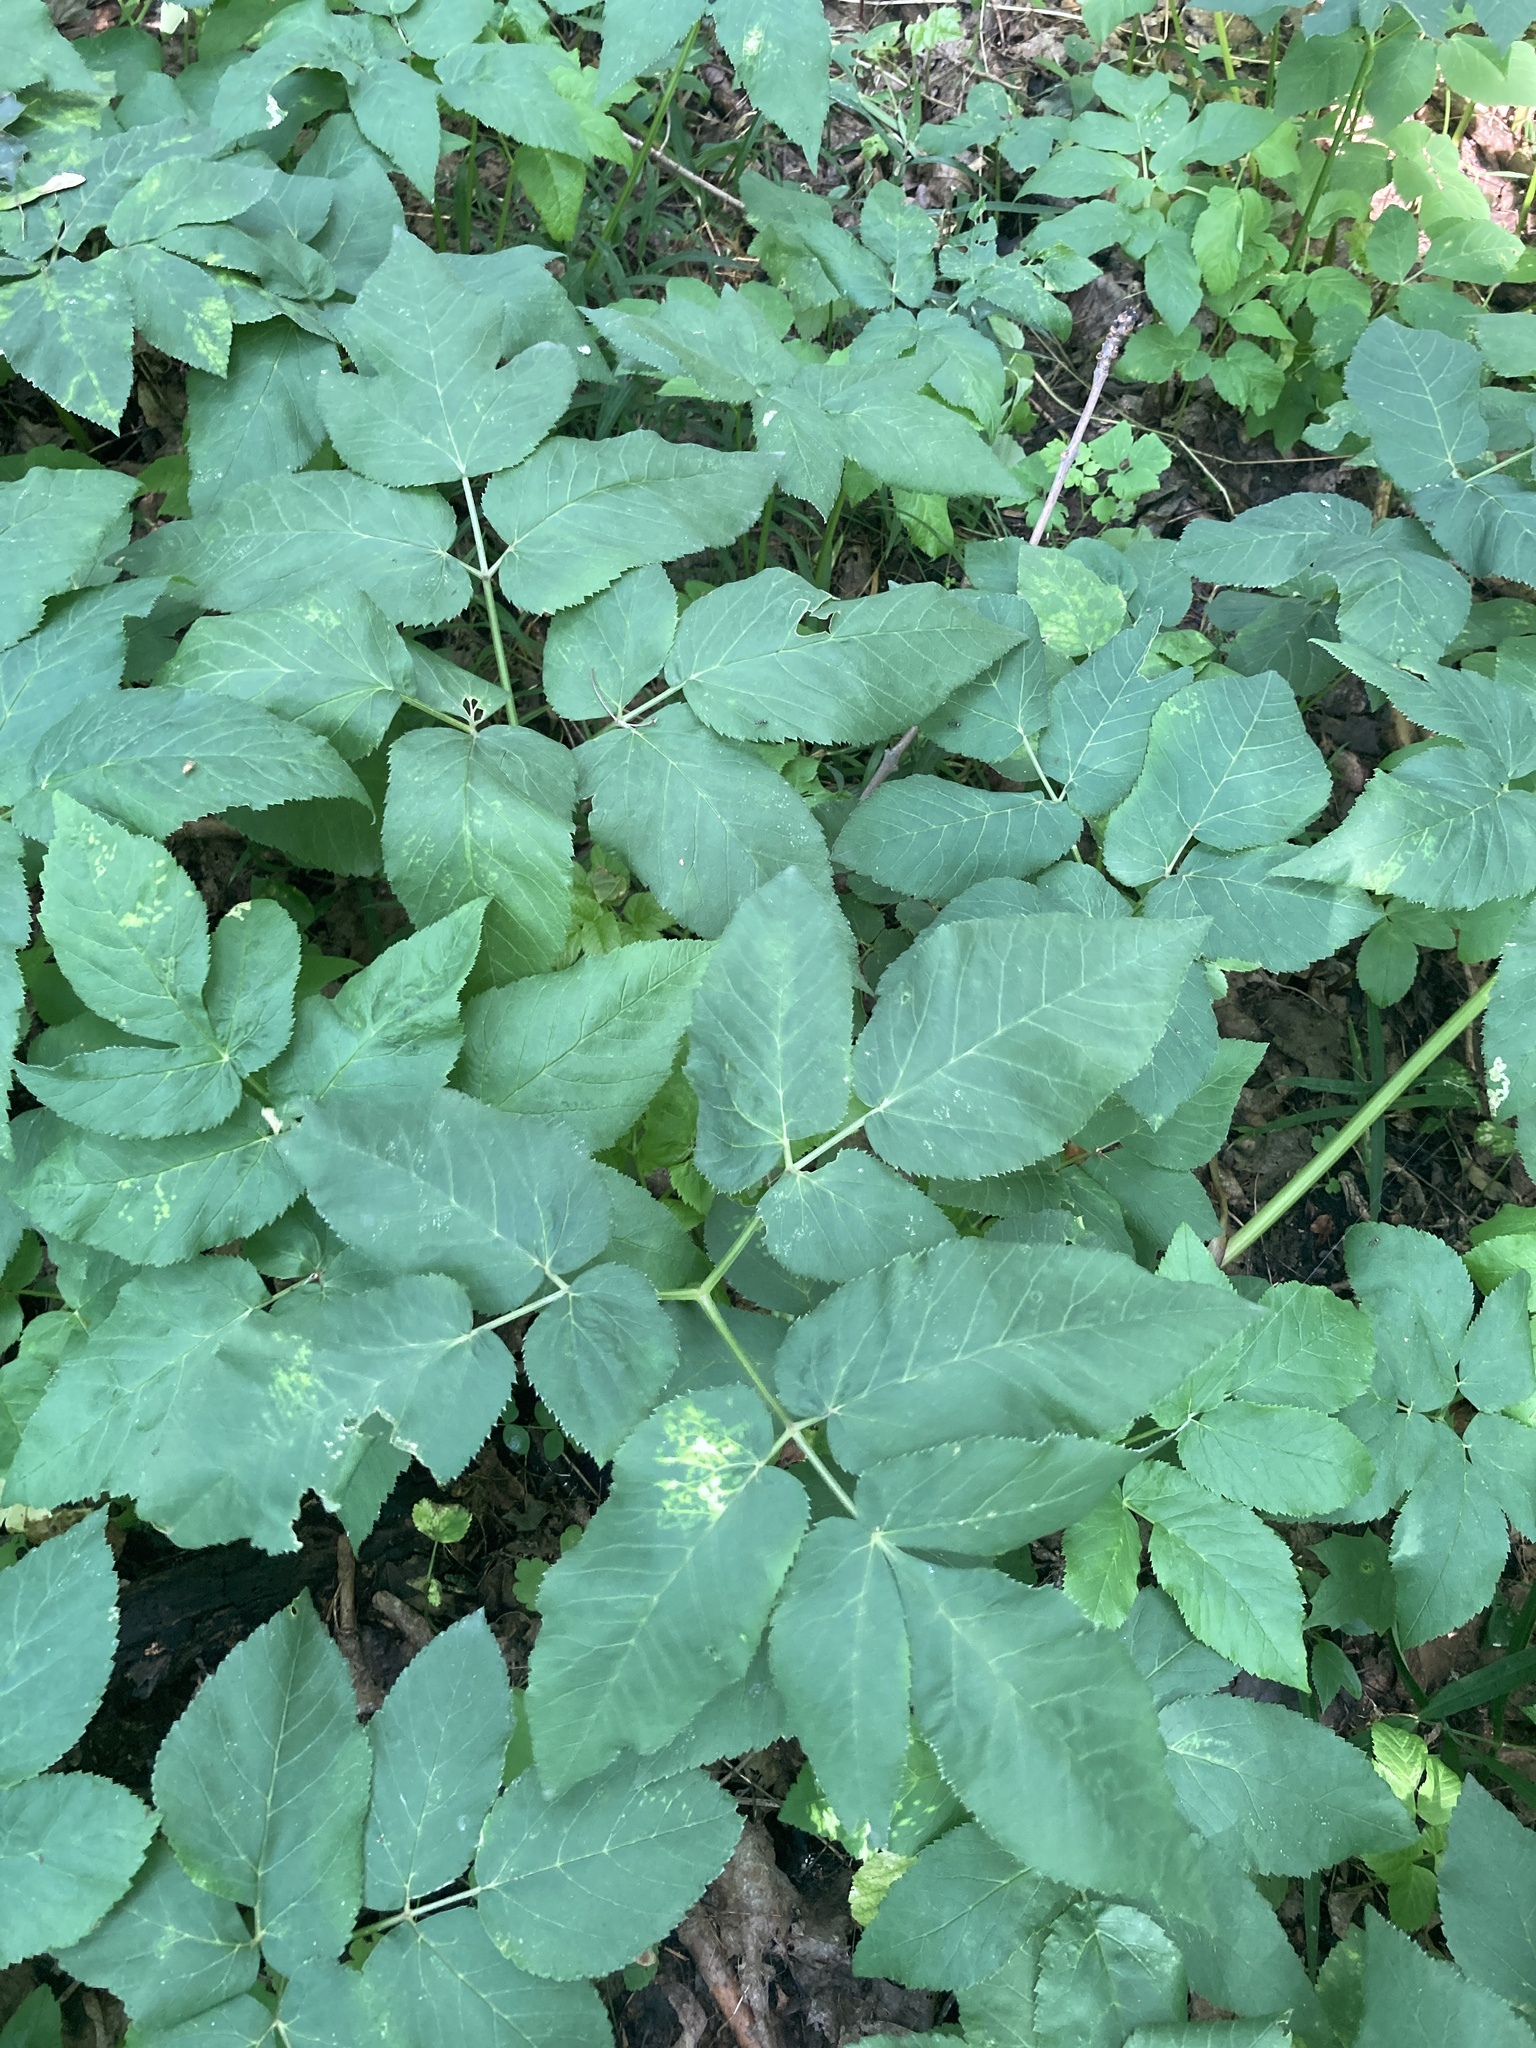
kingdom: Plantae
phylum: Tracheophyta
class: Magnoliopsida
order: Apiales
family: Apiaceae
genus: Aegopodium
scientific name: Aegopodium podagraria
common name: Ground-elder
